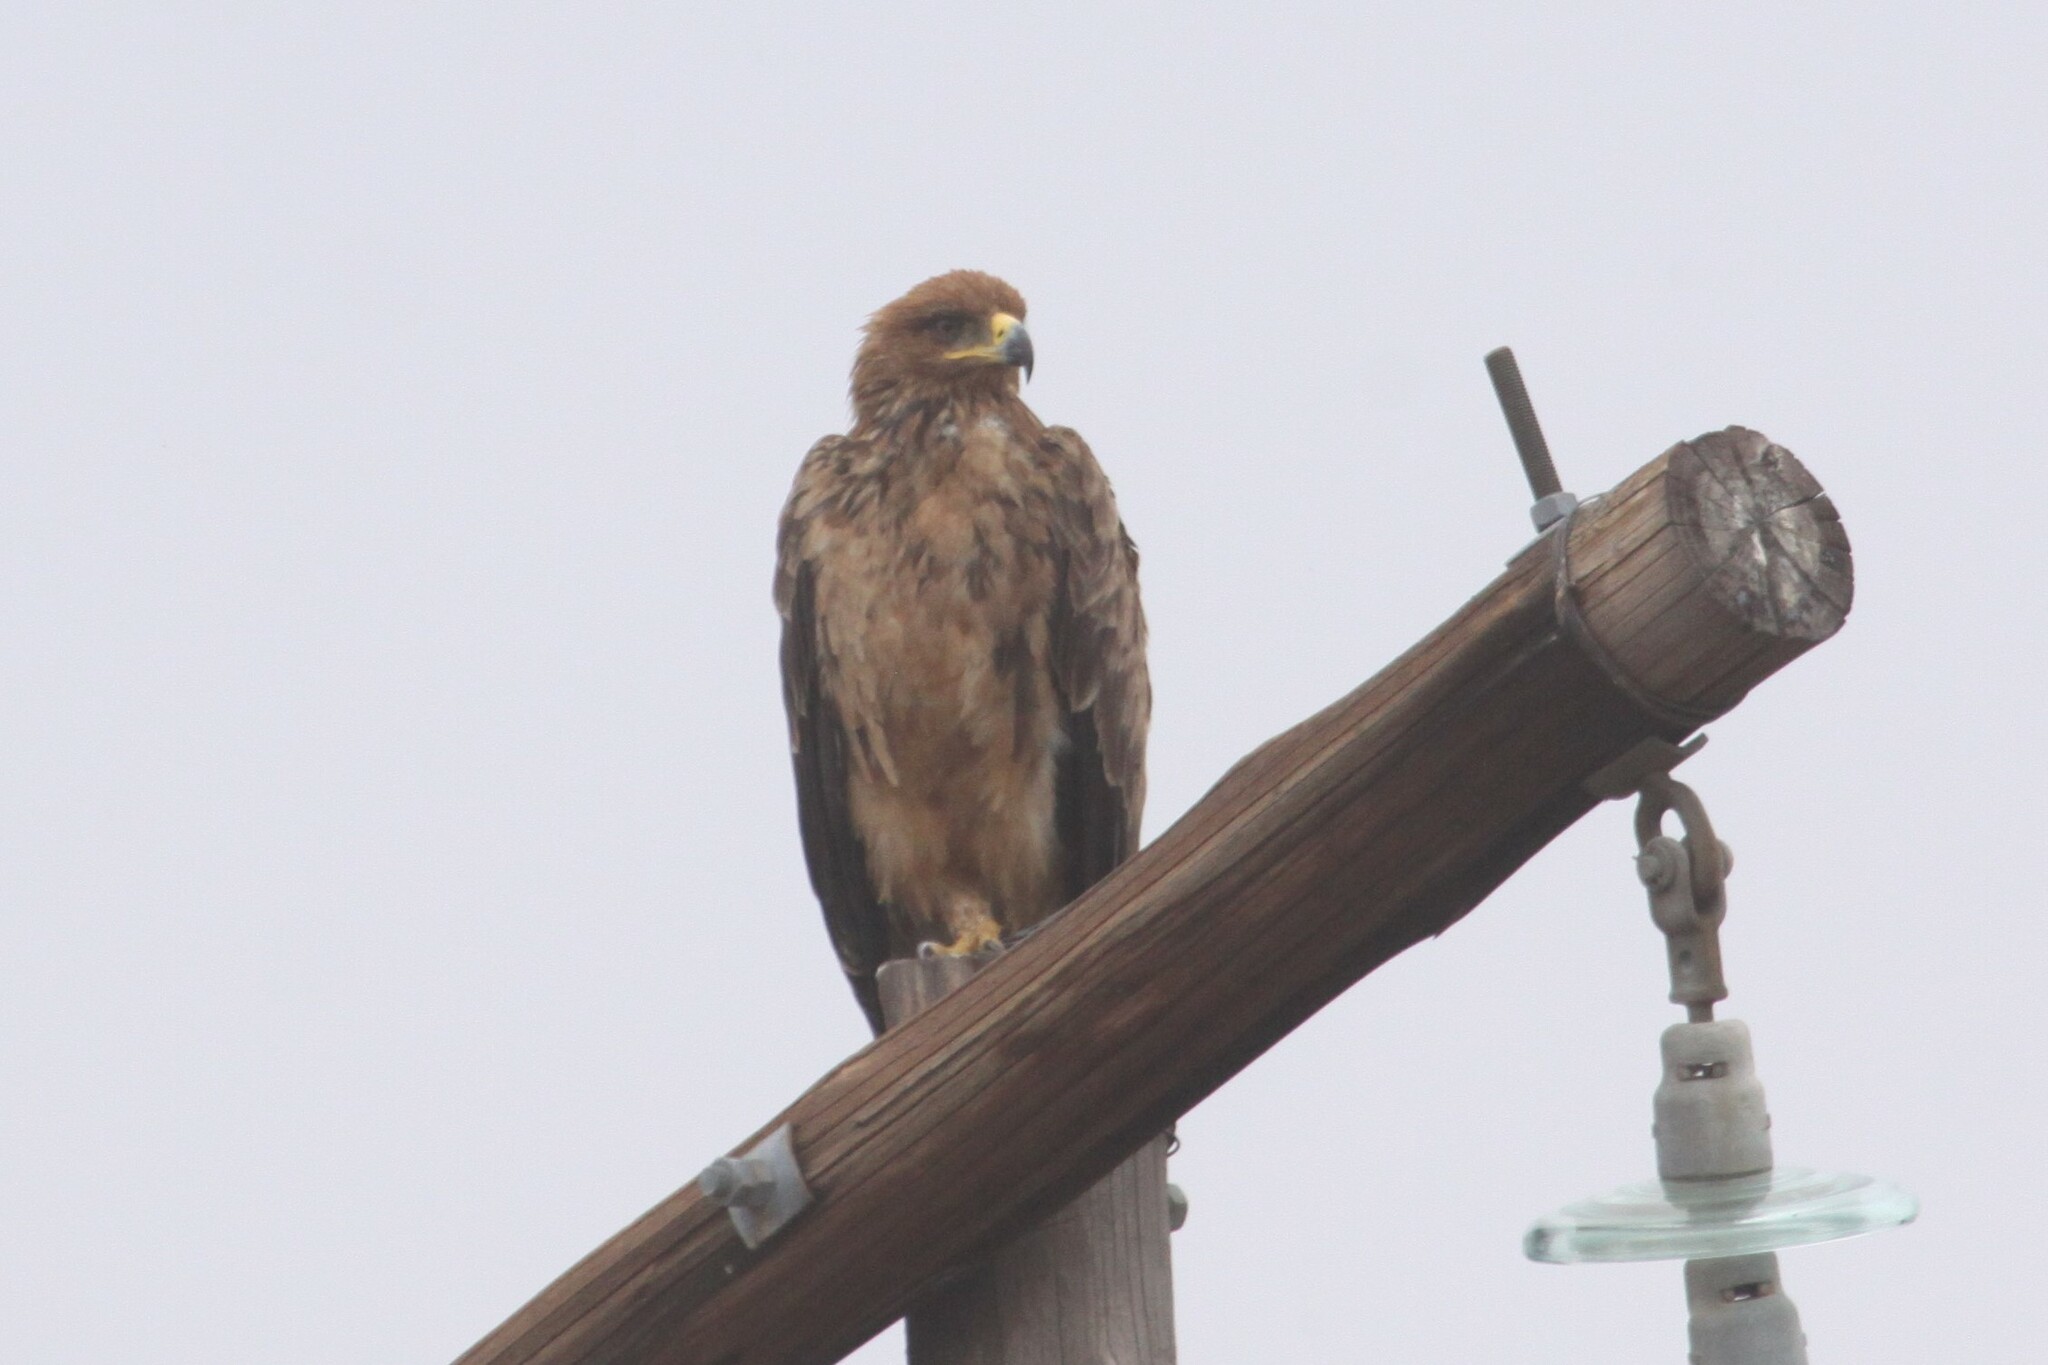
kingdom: Animalia
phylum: Chordata
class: Aves
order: Accipitriformes
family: Accipitridae
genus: Aquila
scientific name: Aquila rapax
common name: Tawny eagle
